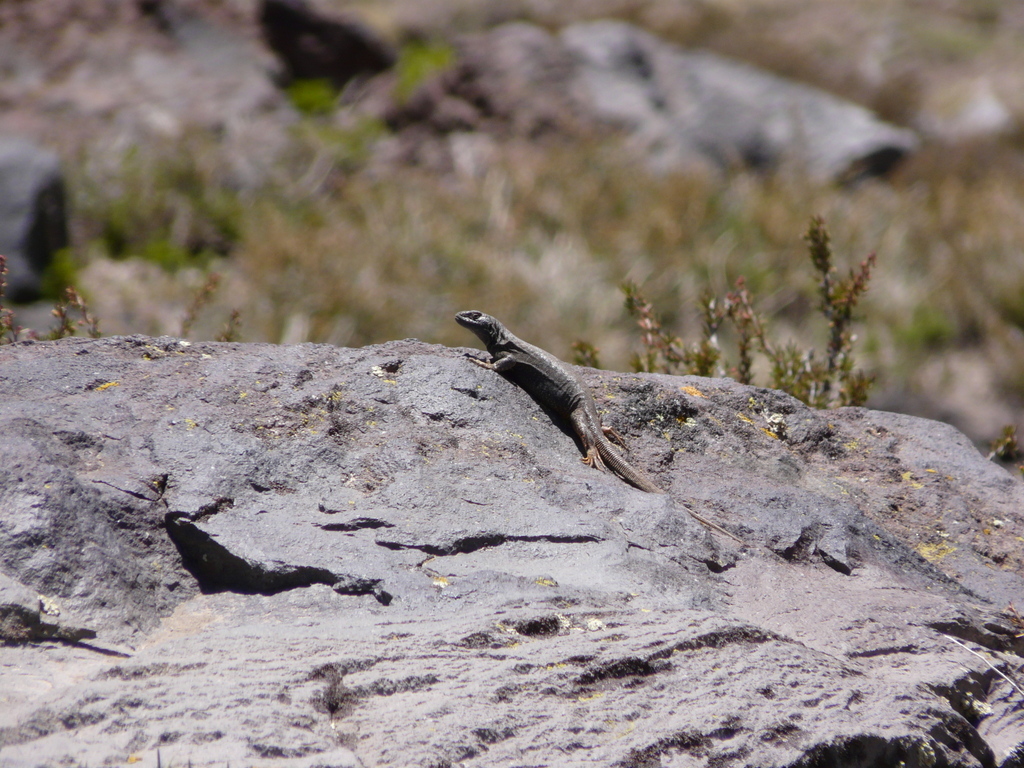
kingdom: Animalia
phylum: Chordata
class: Squamata
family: Liolaemidae
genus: Liolaemus
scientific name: Liolaemus buergeri
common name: Buerger's tree iguana
